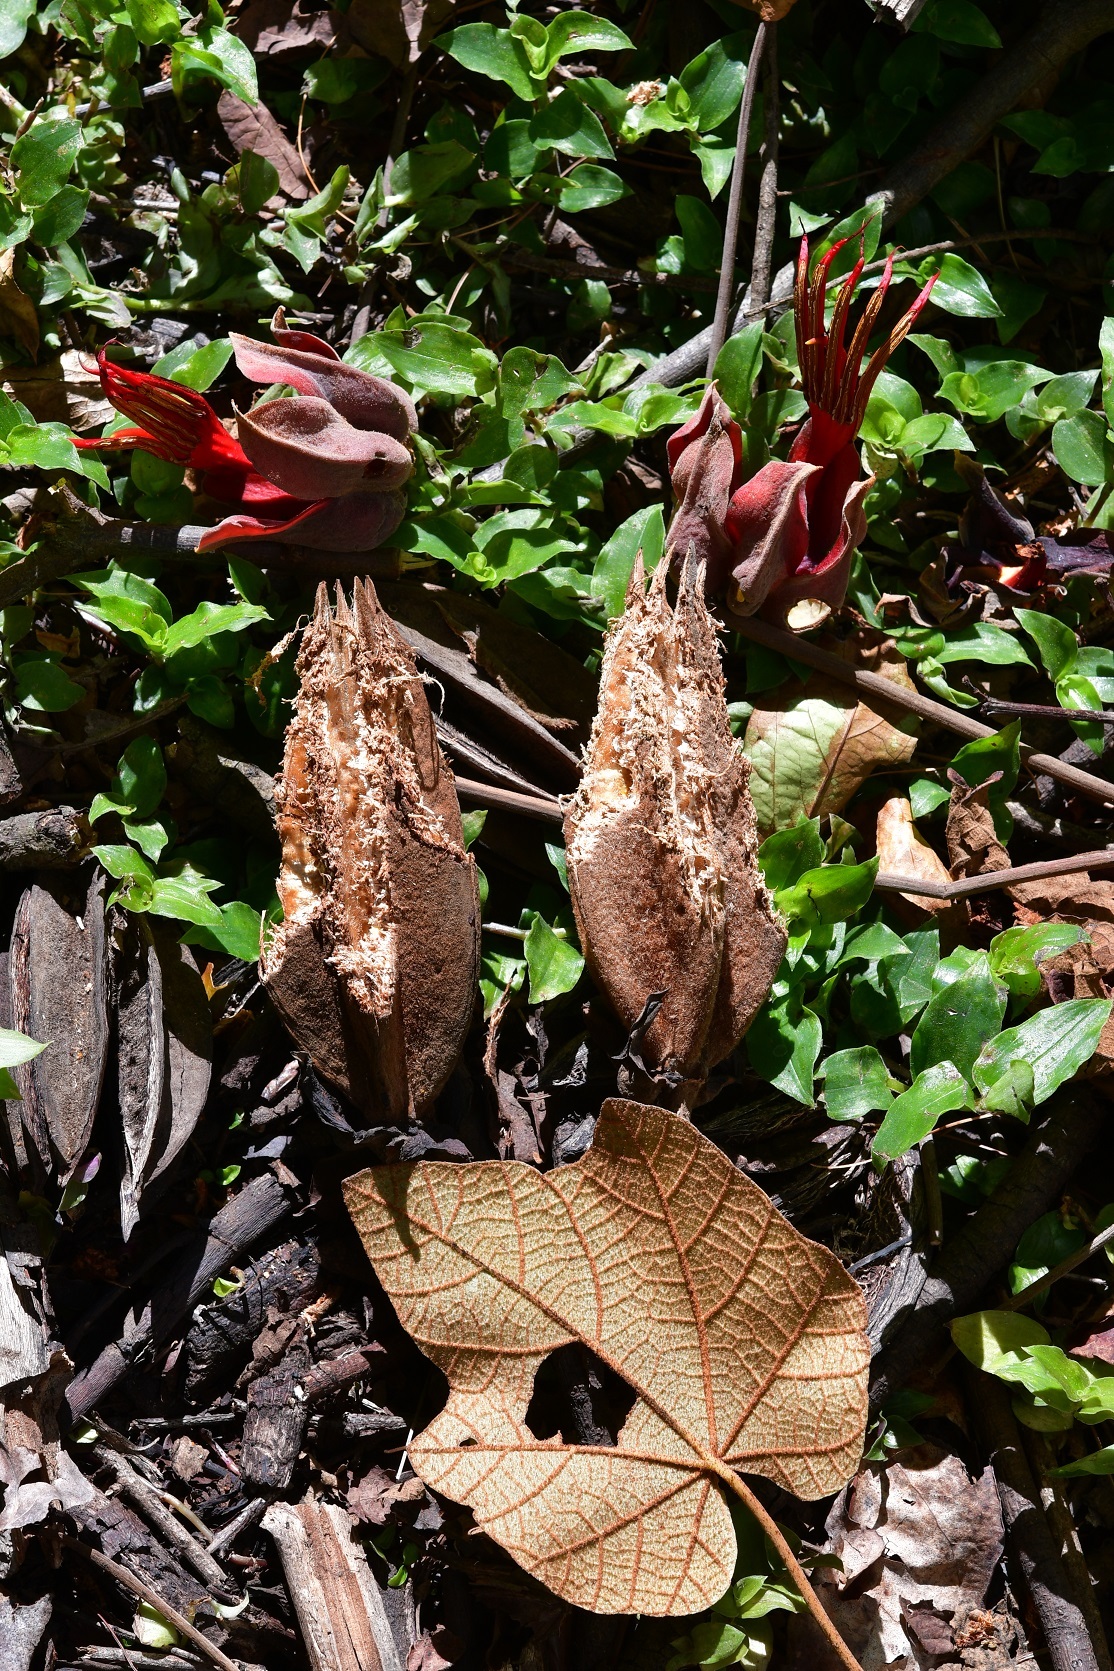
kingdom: Plantae
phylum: Tracheophyta
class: Magnoliopsida
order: Malvales
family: Malvaceae
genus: Chiranthodendron
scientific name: Chiranthodendron pentadactylon
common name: Mexican-hat-plant
